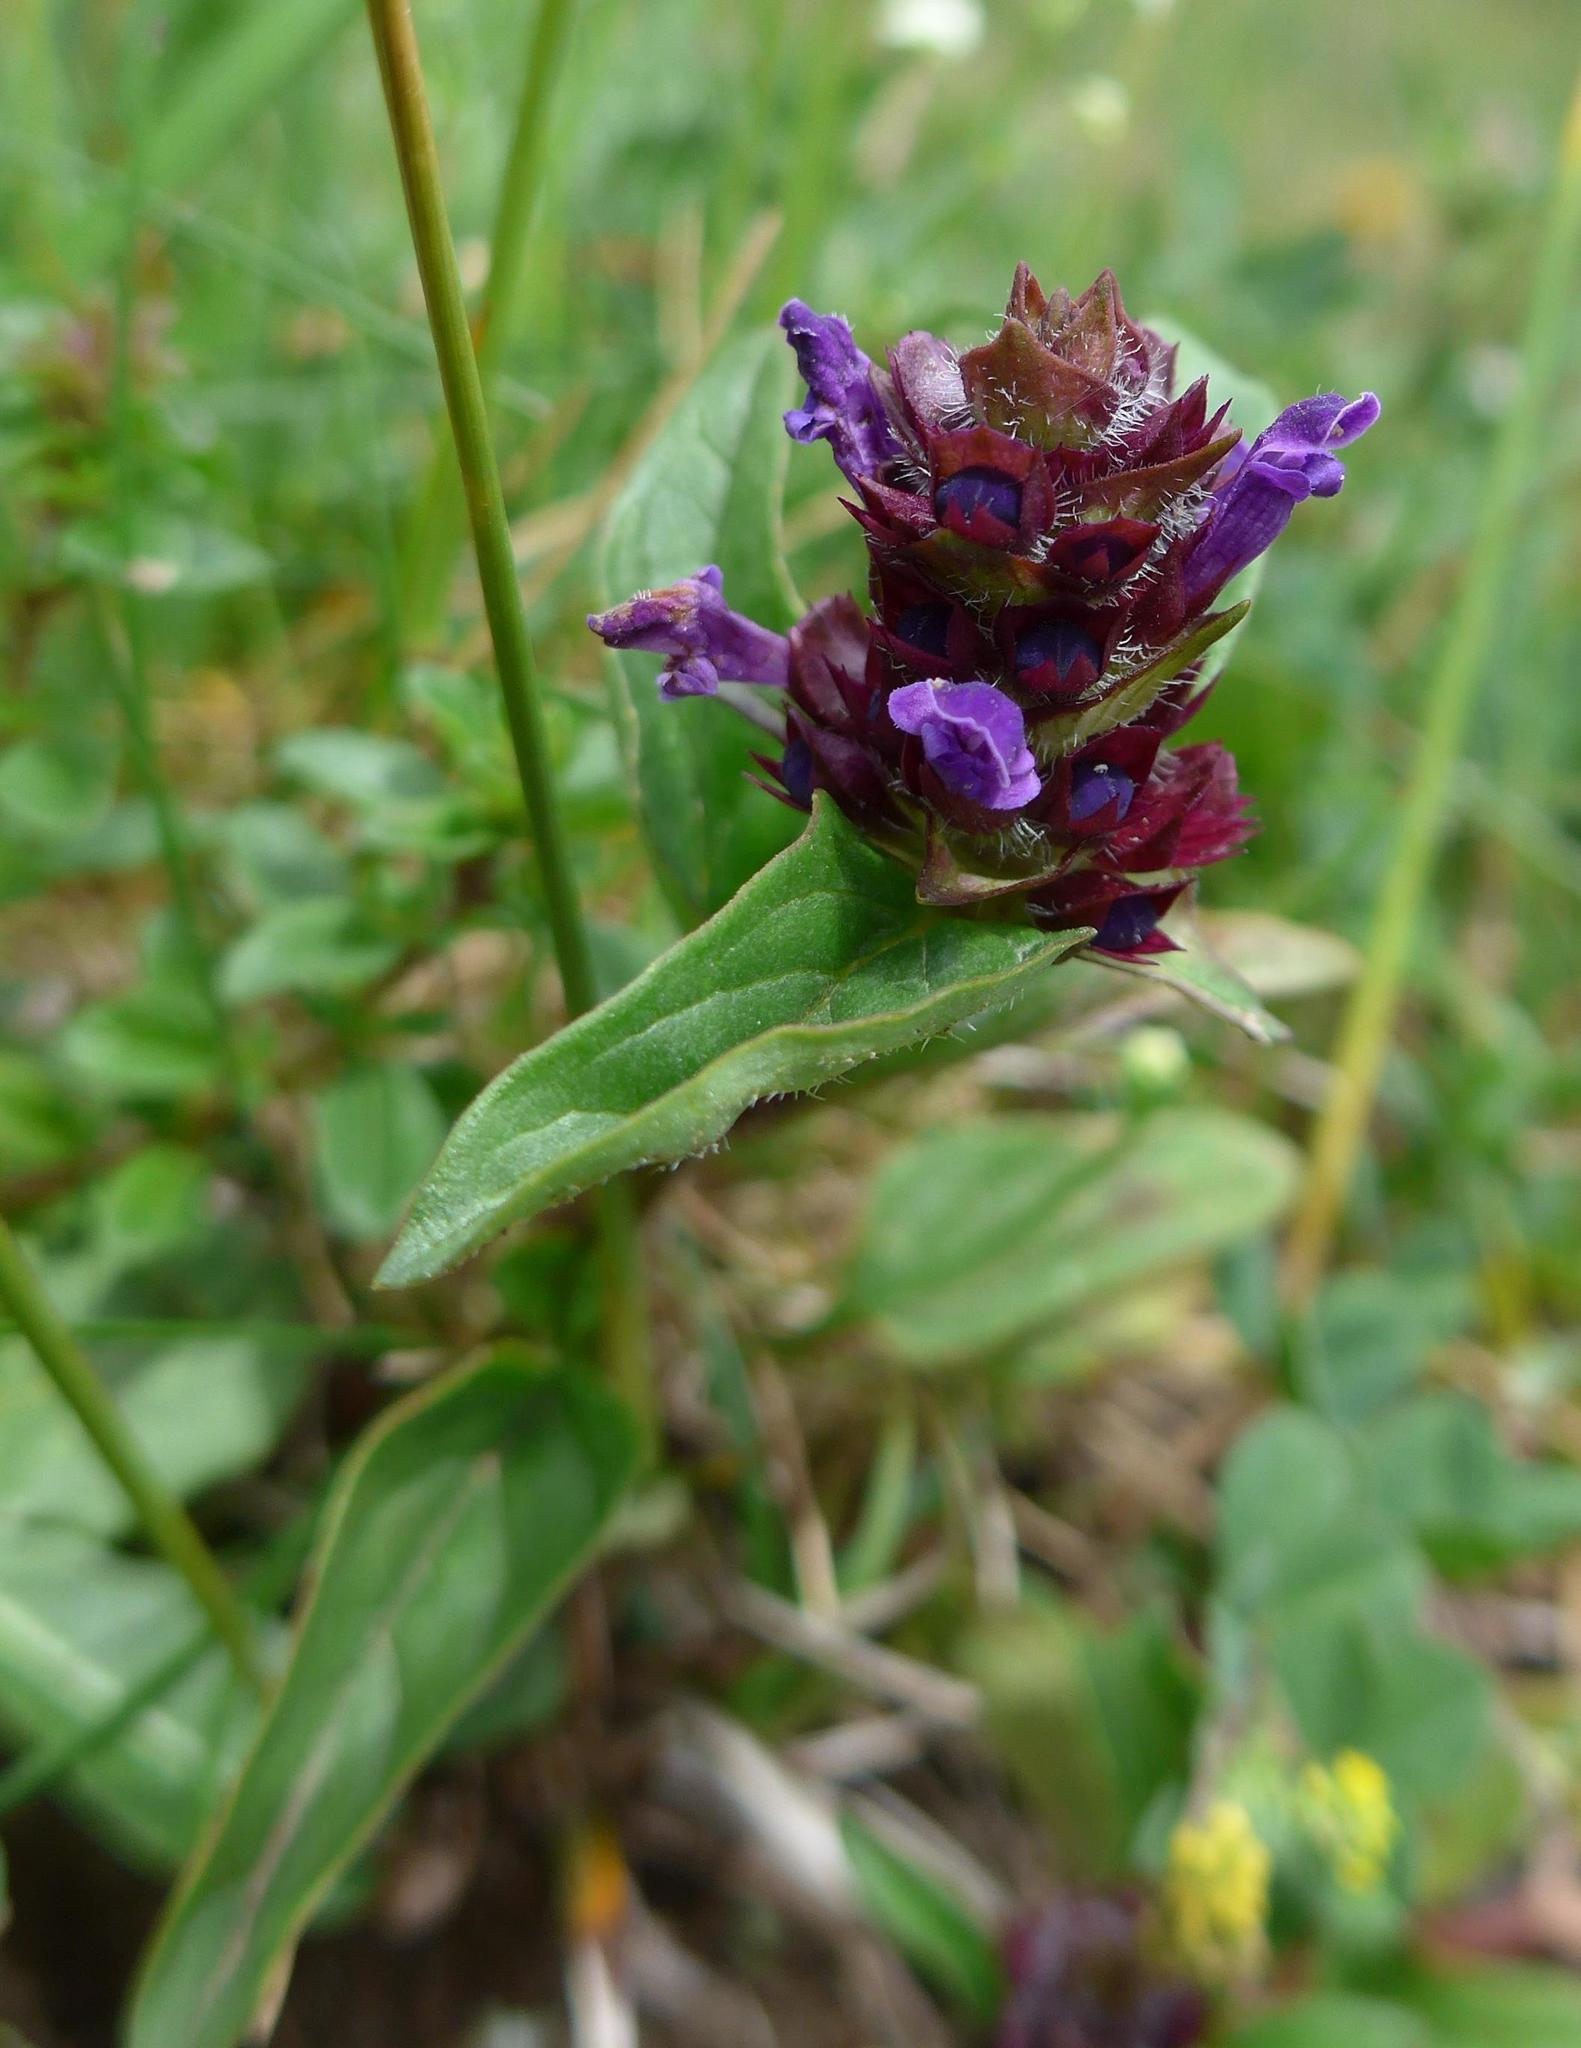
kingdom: Plantae
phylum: Tracheophyta
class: Magnoliopsida
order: Lamiales
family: Lamiaceae
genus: Prunella
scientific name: Prunella vulgaris
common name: Heal-all
